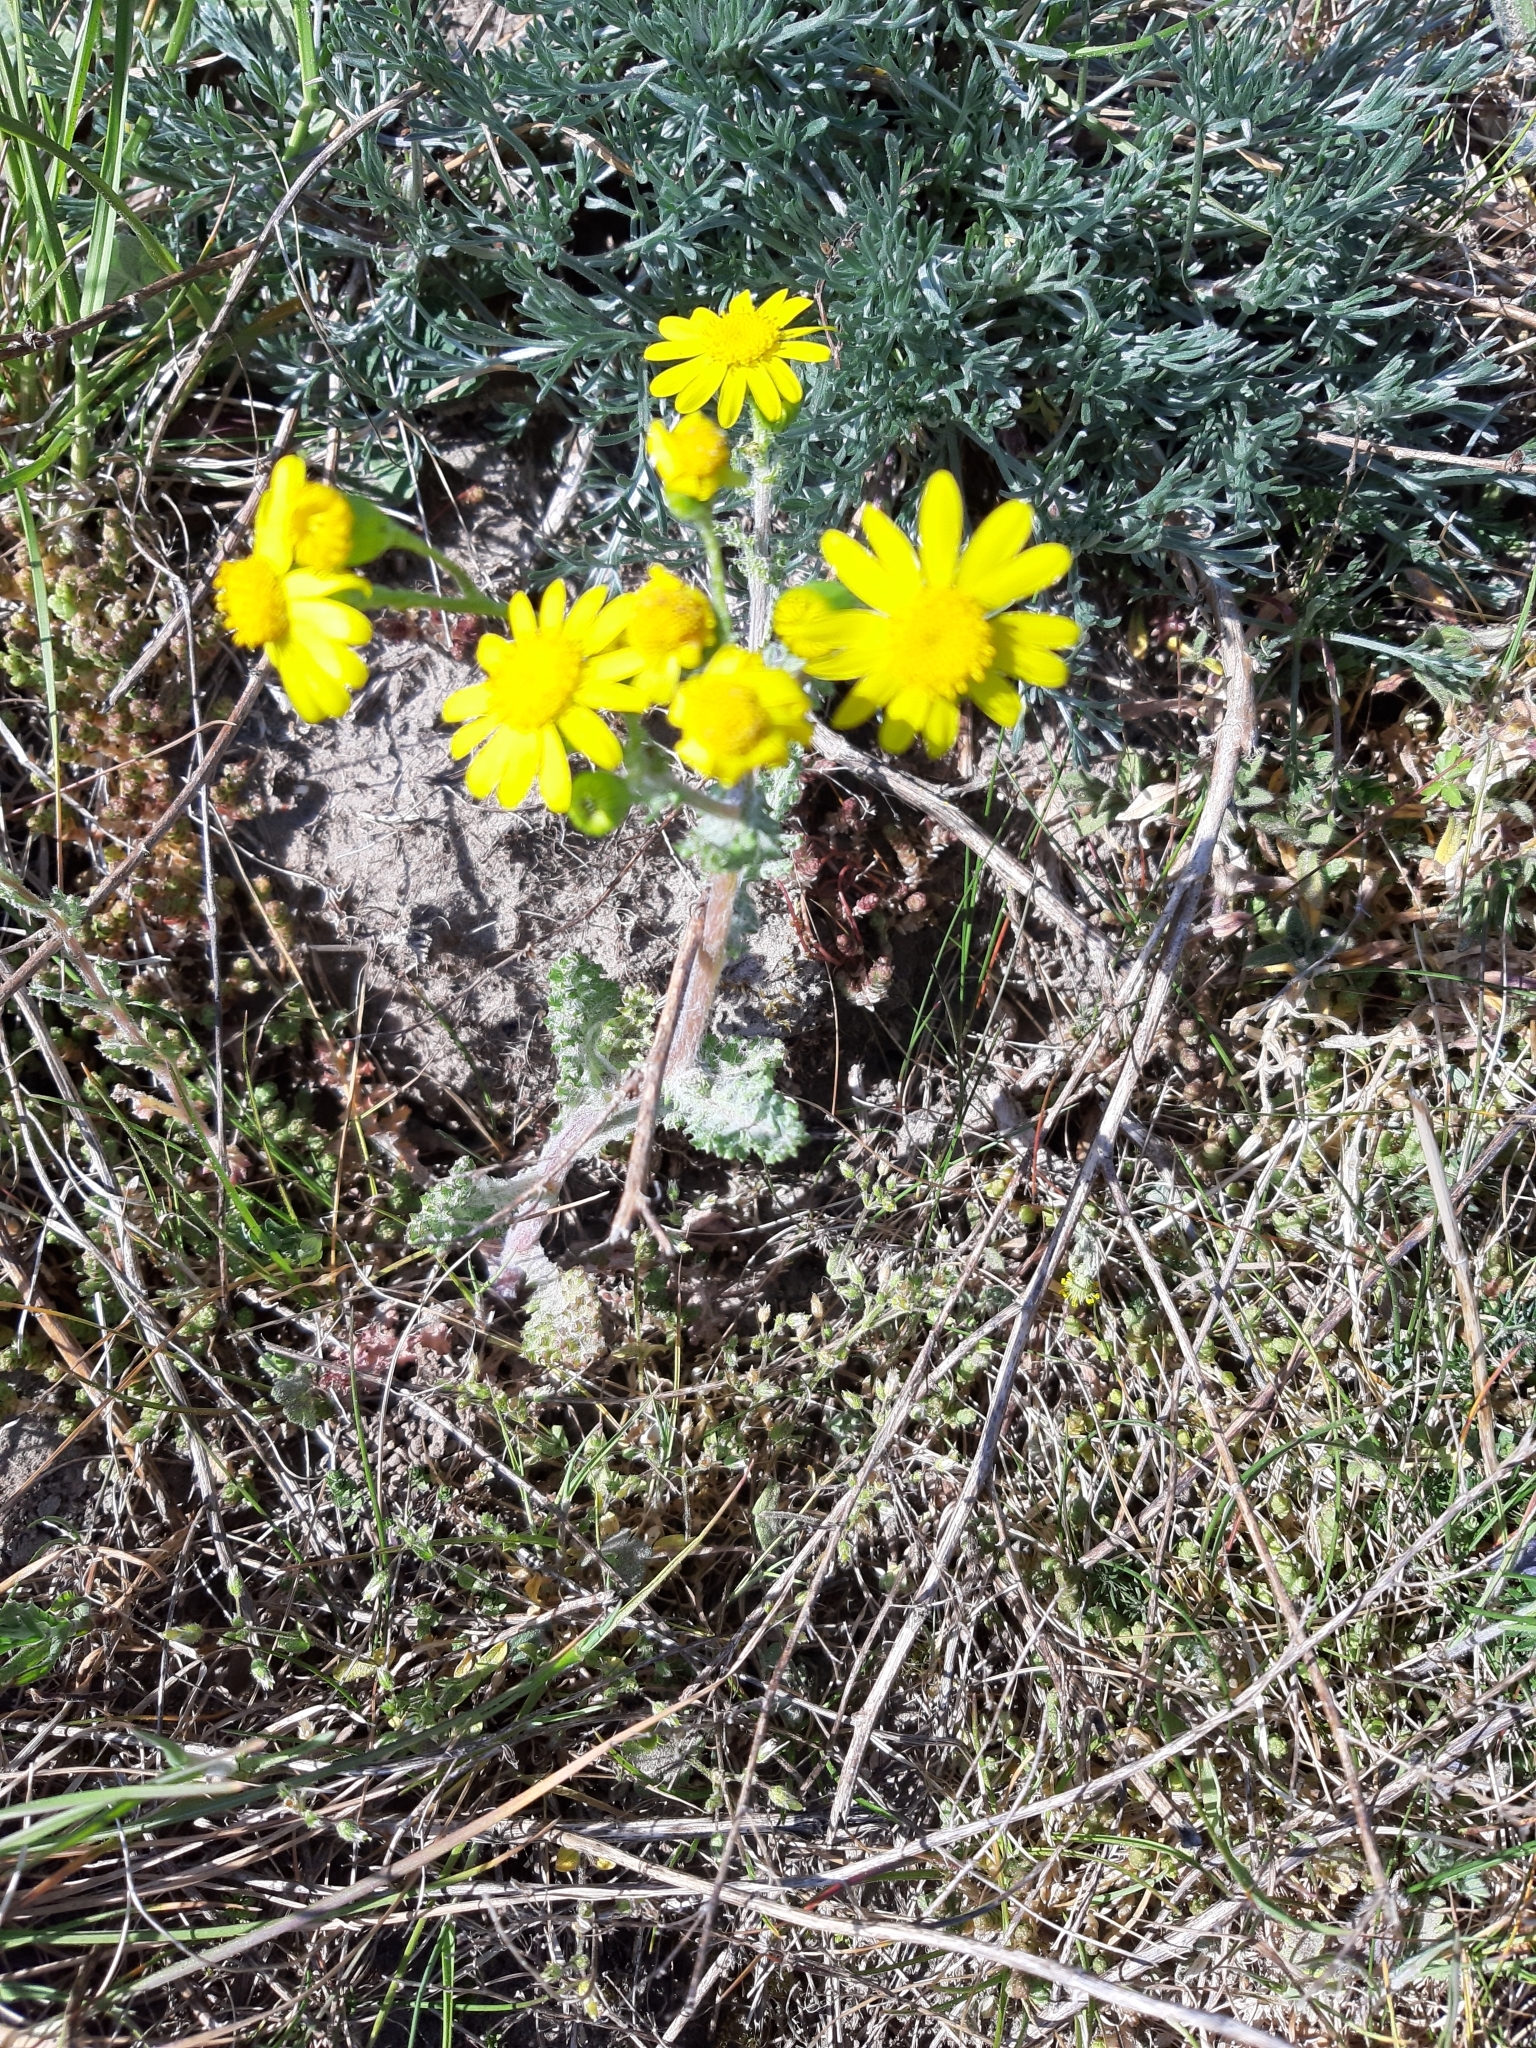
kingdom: Plantae
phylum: Tracheophyta
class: Magnoliopsida
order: Asterales
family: Asteraceae
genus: Senecio
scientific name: Senecio vernalis
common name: Eastern groundsel
